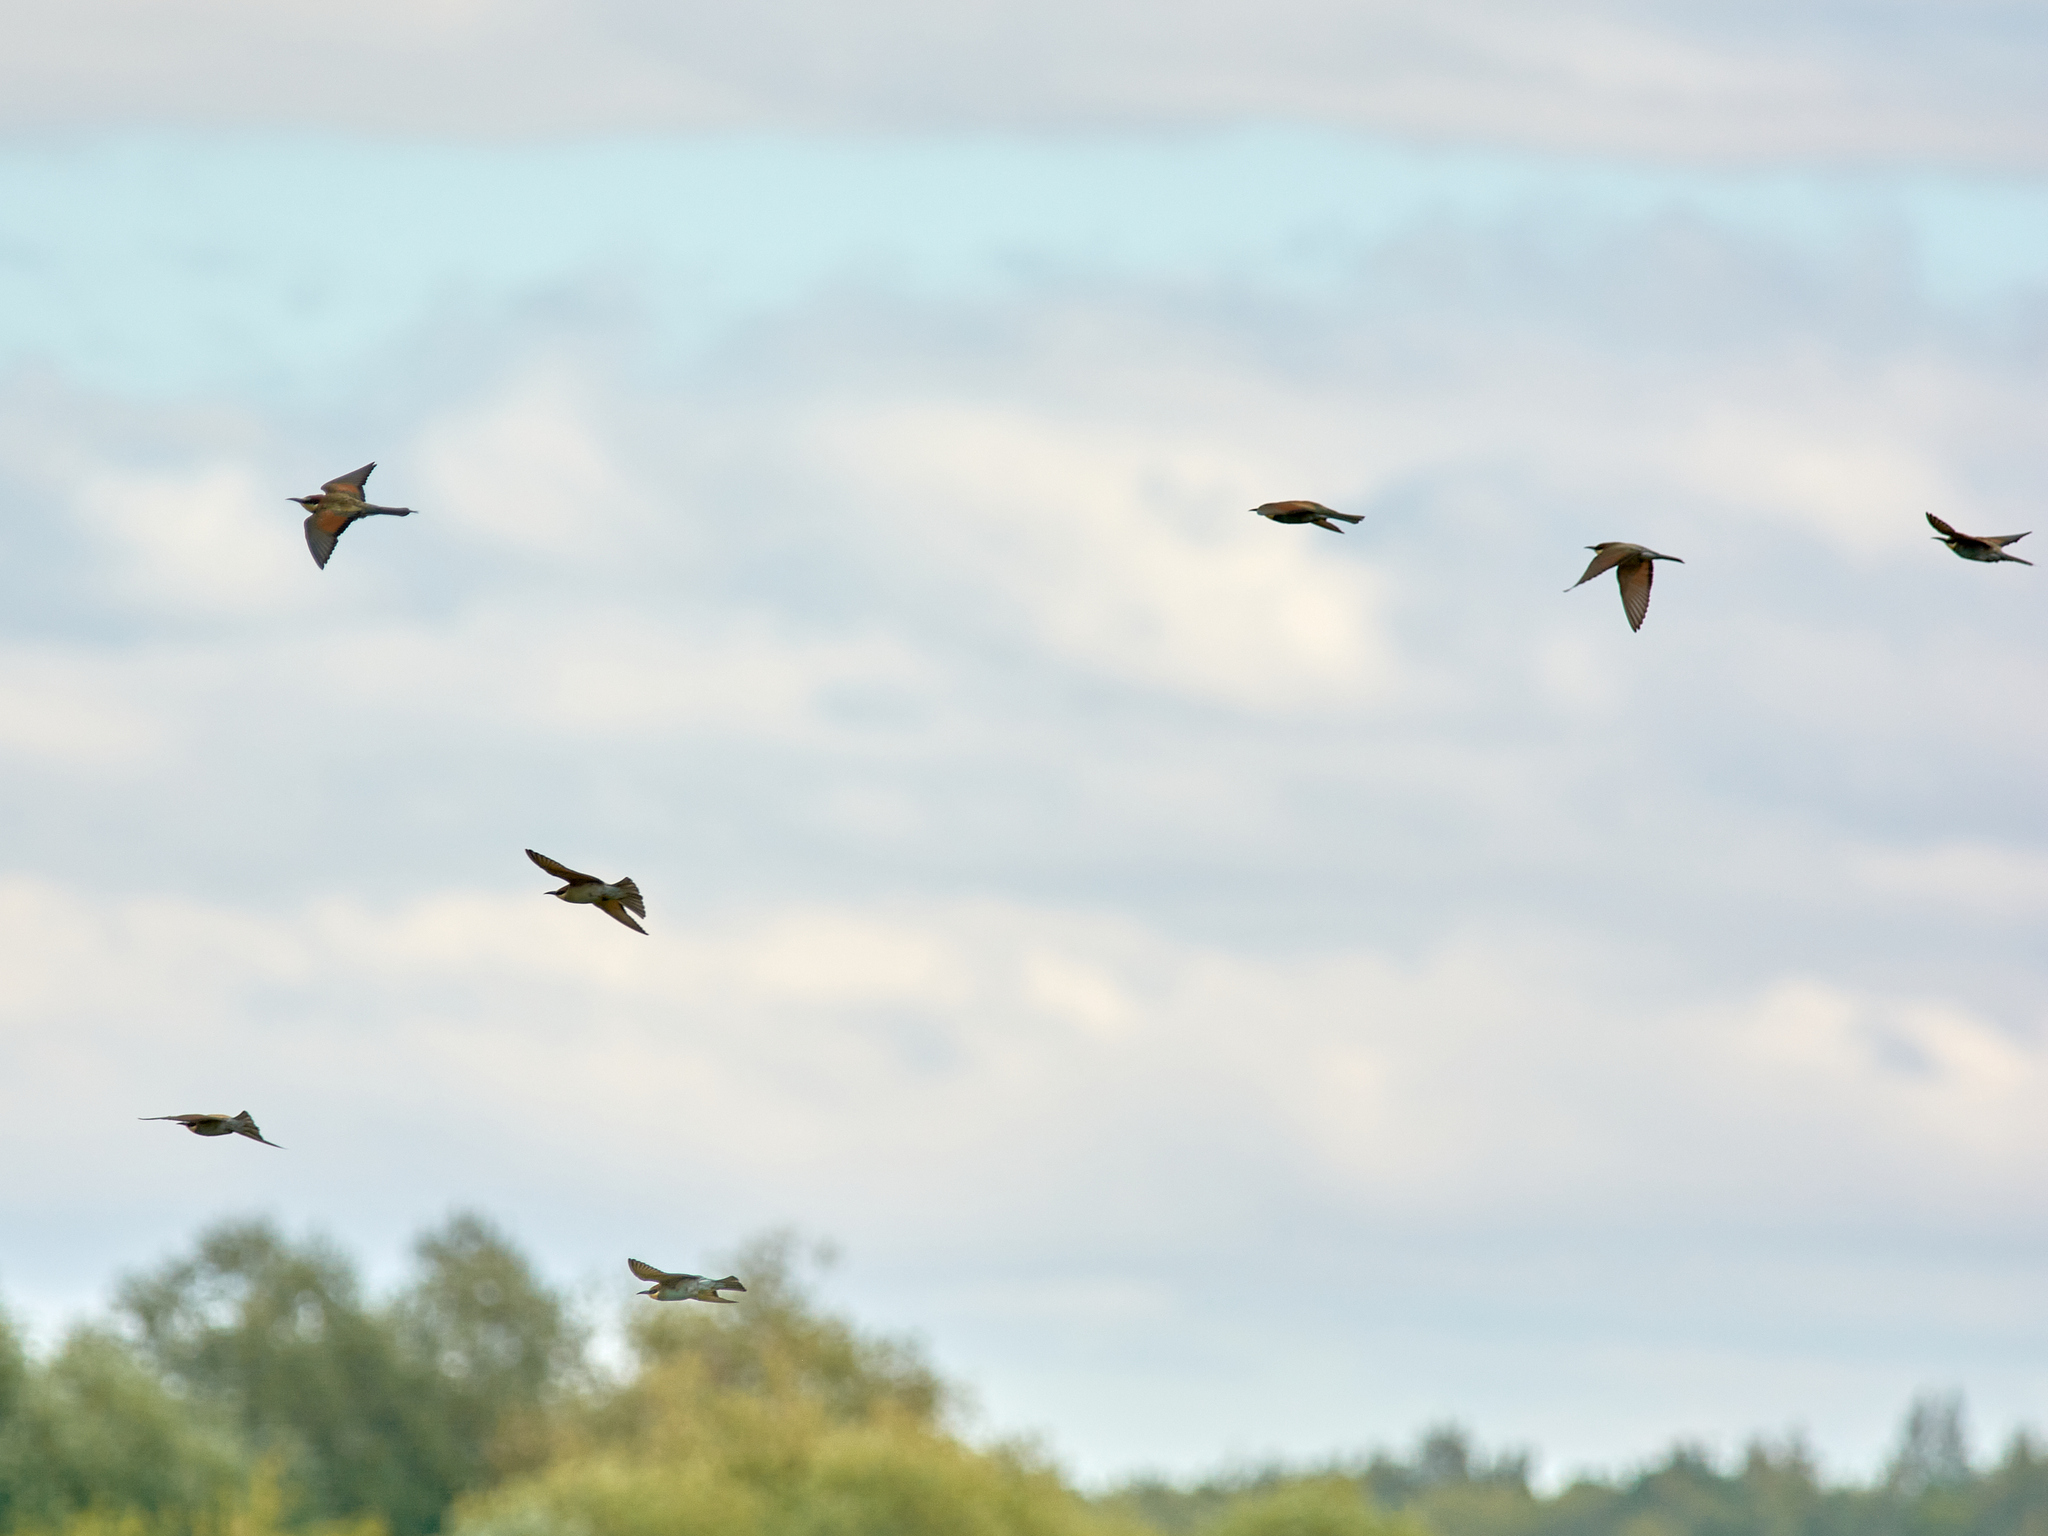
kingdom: Animalia
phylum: Chordata
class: Aves
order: Coraciiformes
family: Meropidae
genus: Merops
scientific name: Merops apiaster
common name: European bee-eater
